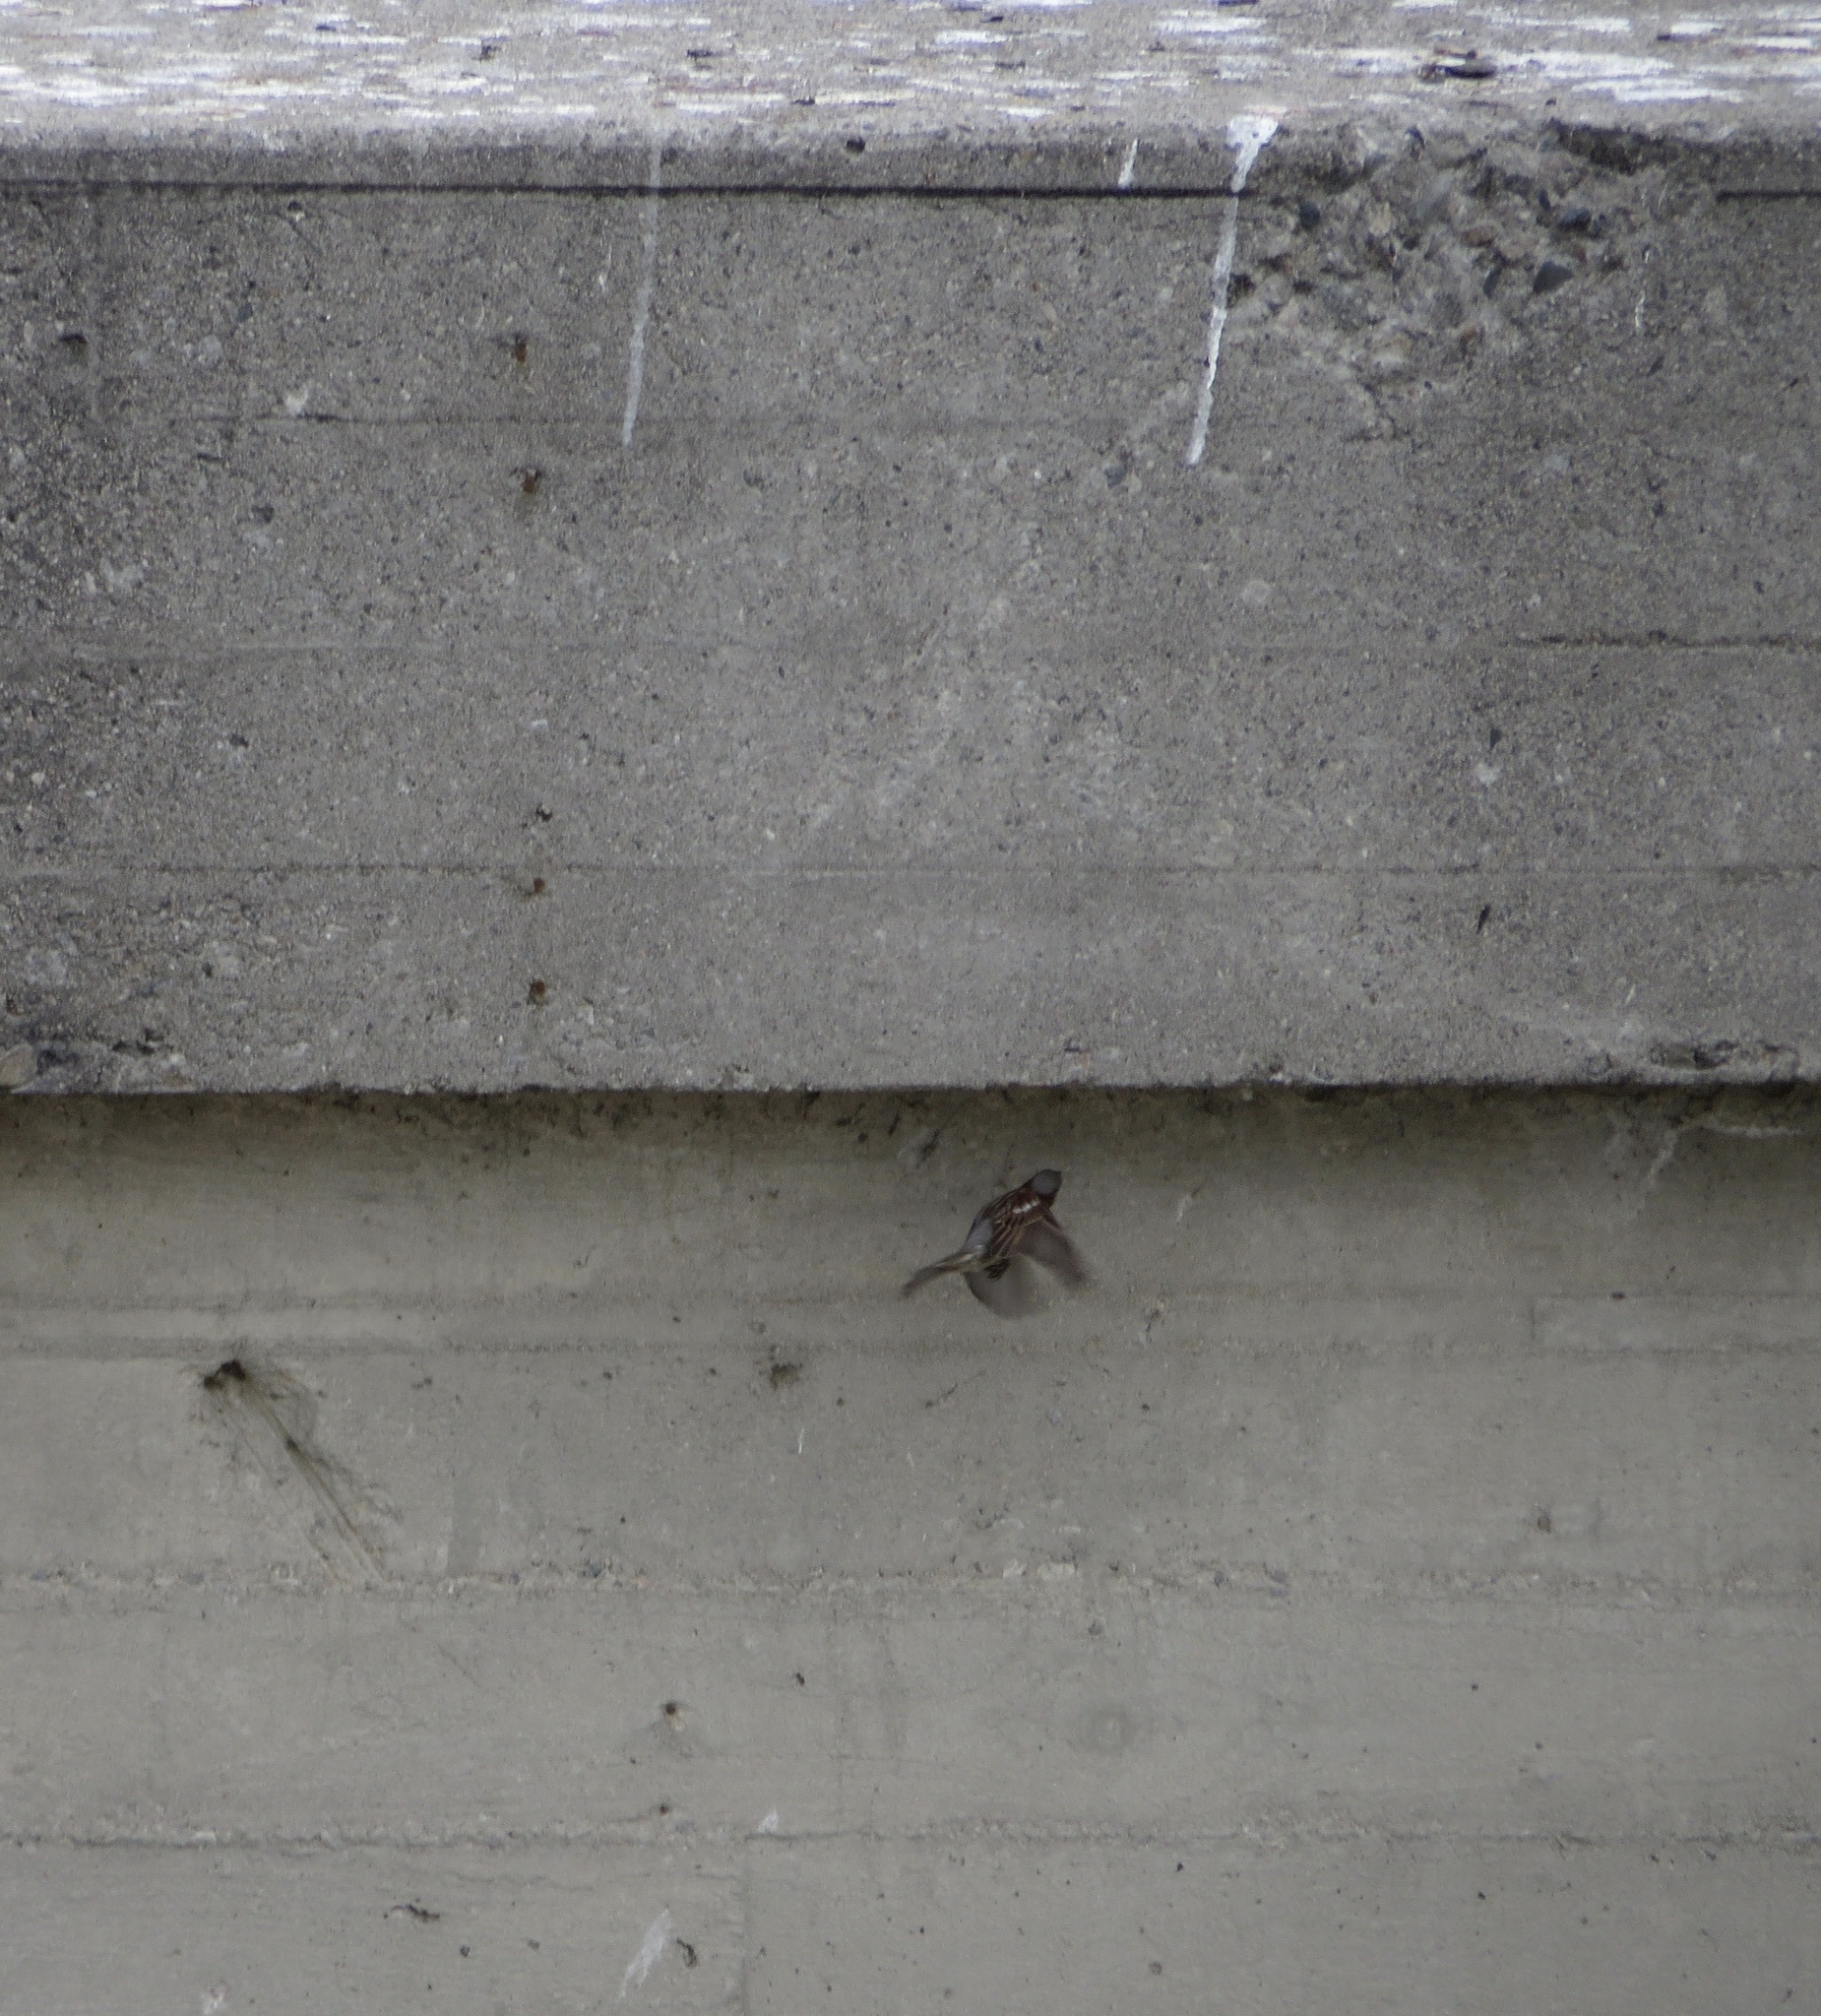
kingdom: Animalia
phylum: Chordata
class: Aves
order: Passeriformes
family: Passeridae
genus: Passer
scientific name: Passer domesticus
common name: House sparrow
